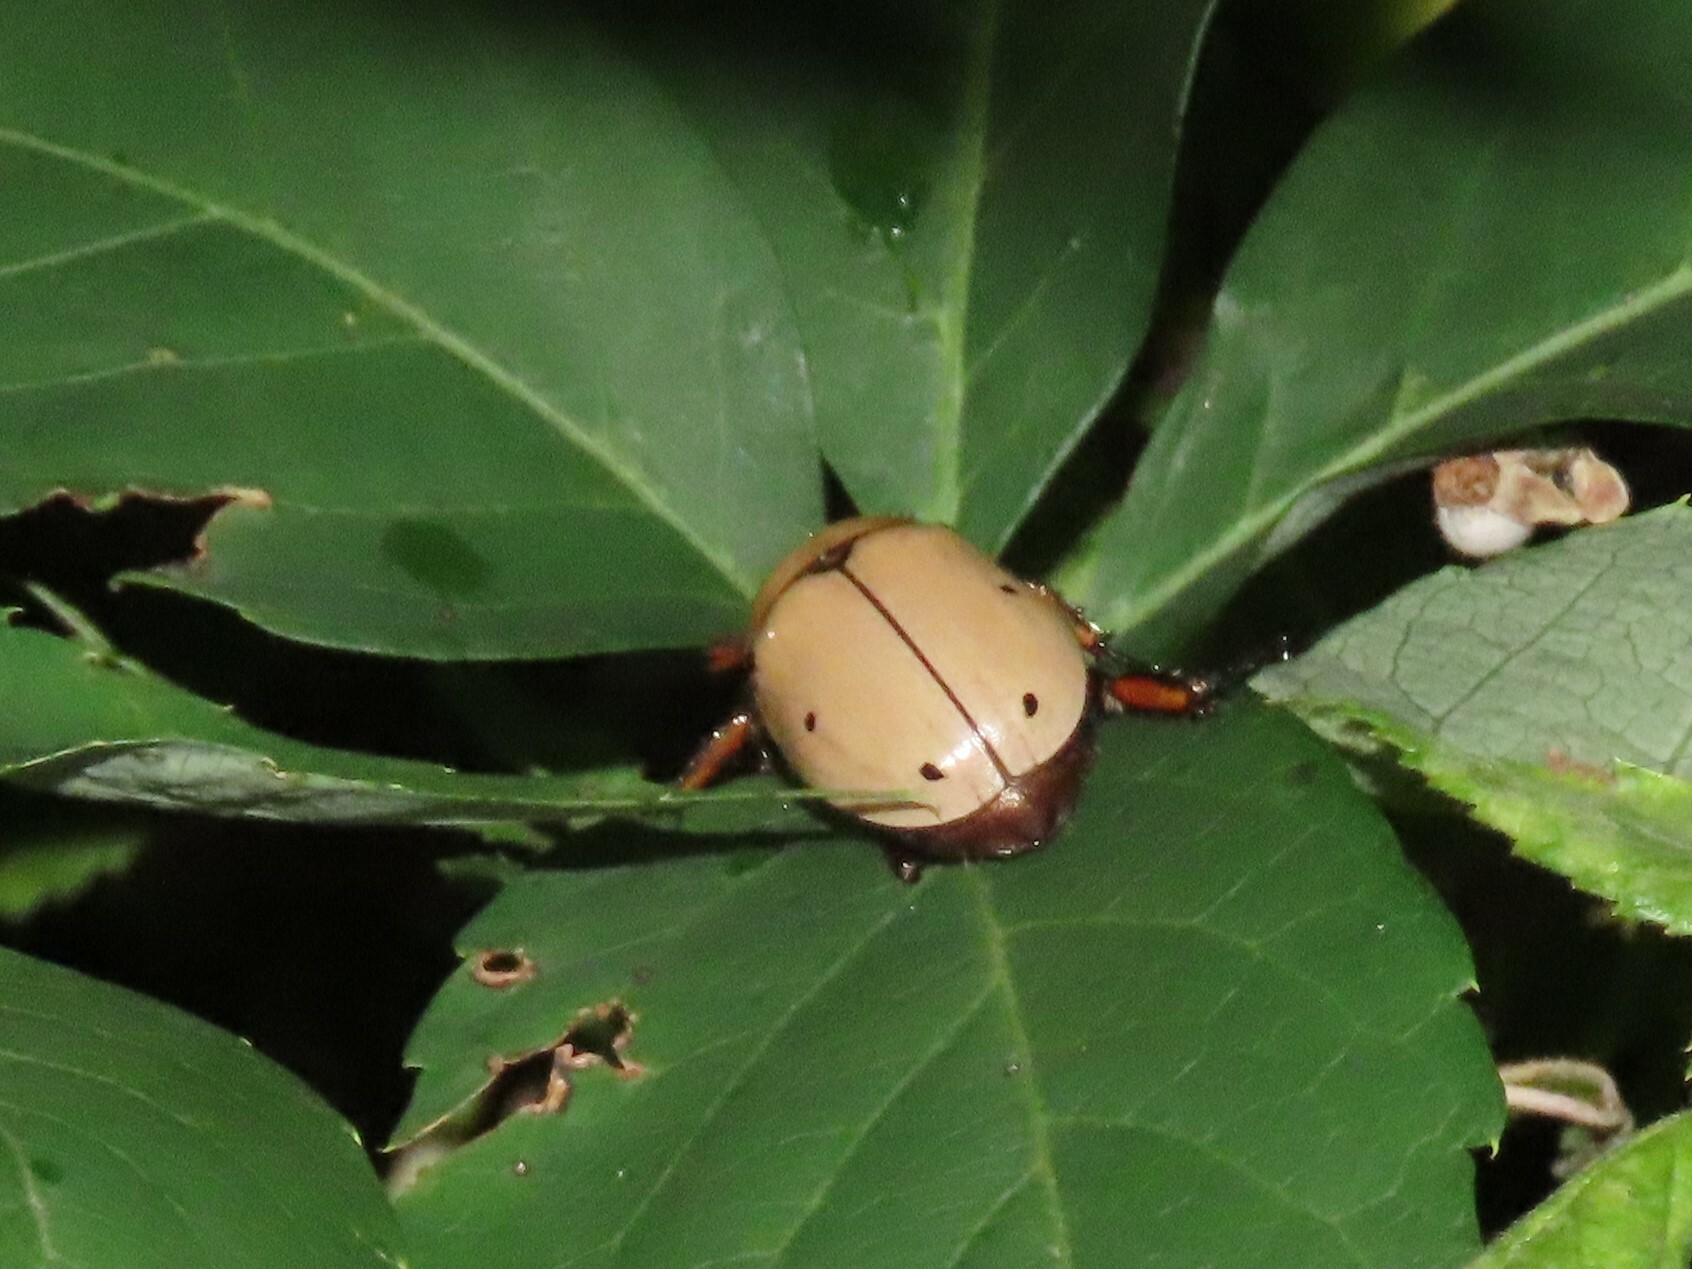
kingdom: Animalia
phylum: Arthropoda
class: Insecta
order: Coleoptera
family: Scarabaeidae
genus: Pelidnota
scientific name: Pelidnota punctata
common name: Grapevine beetle
